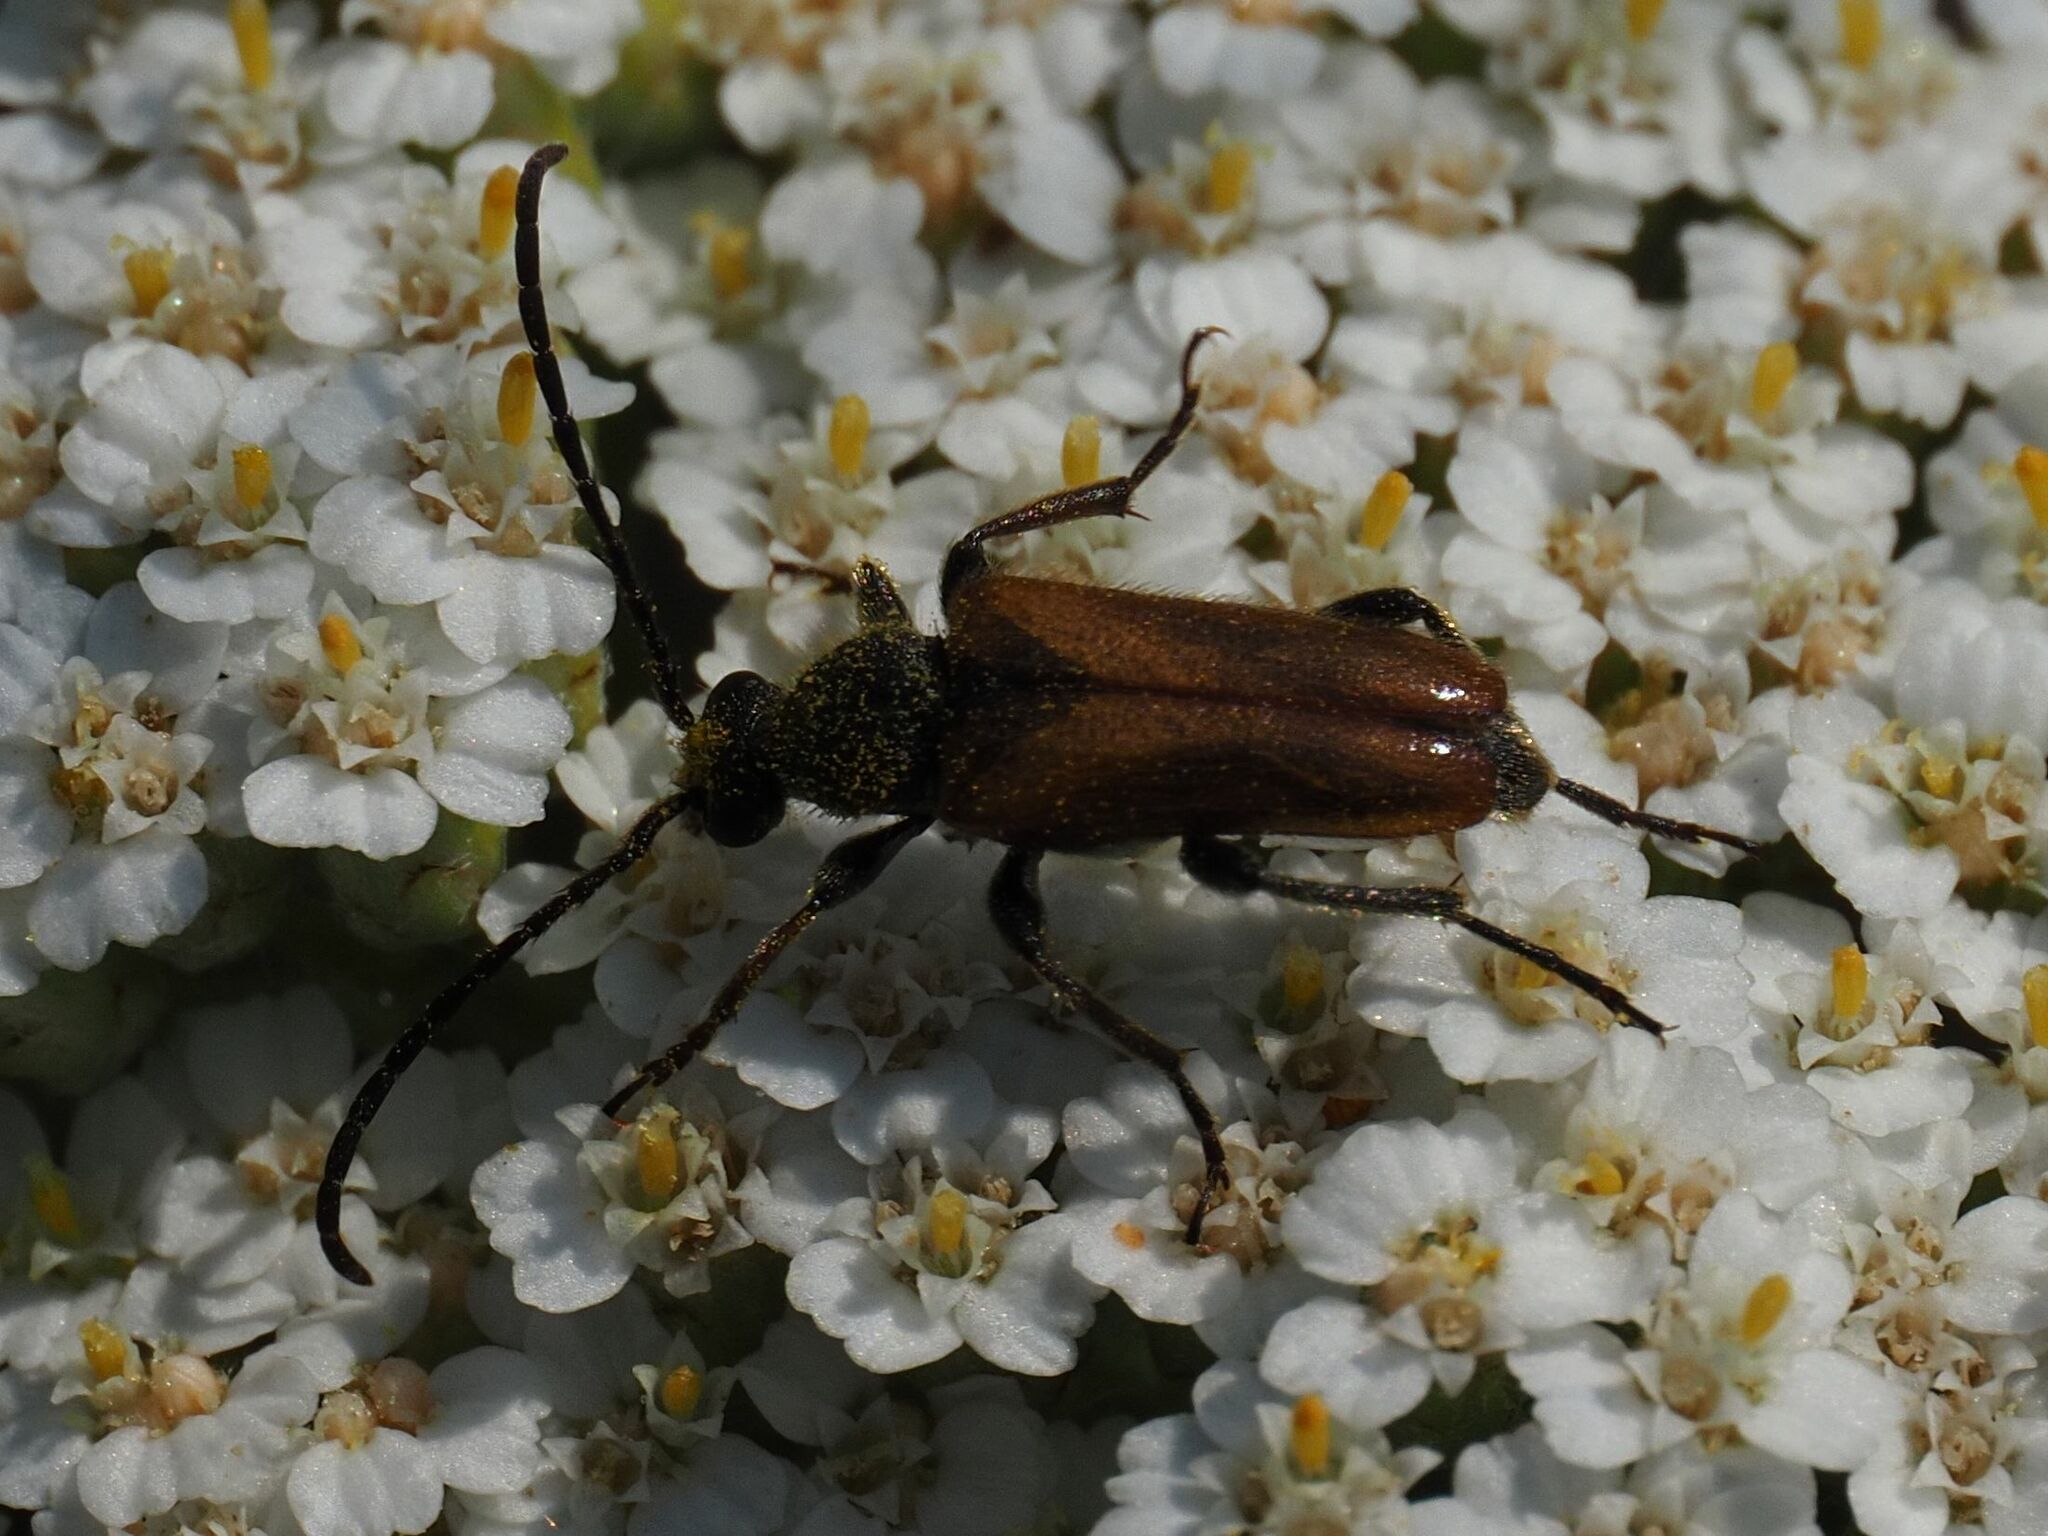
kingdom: Animalia
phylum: Arthropoda
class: Insecta
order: Coleoptera
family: Cerambycidae
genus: Pseudovadonia
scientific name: Pseudovadonia livida
